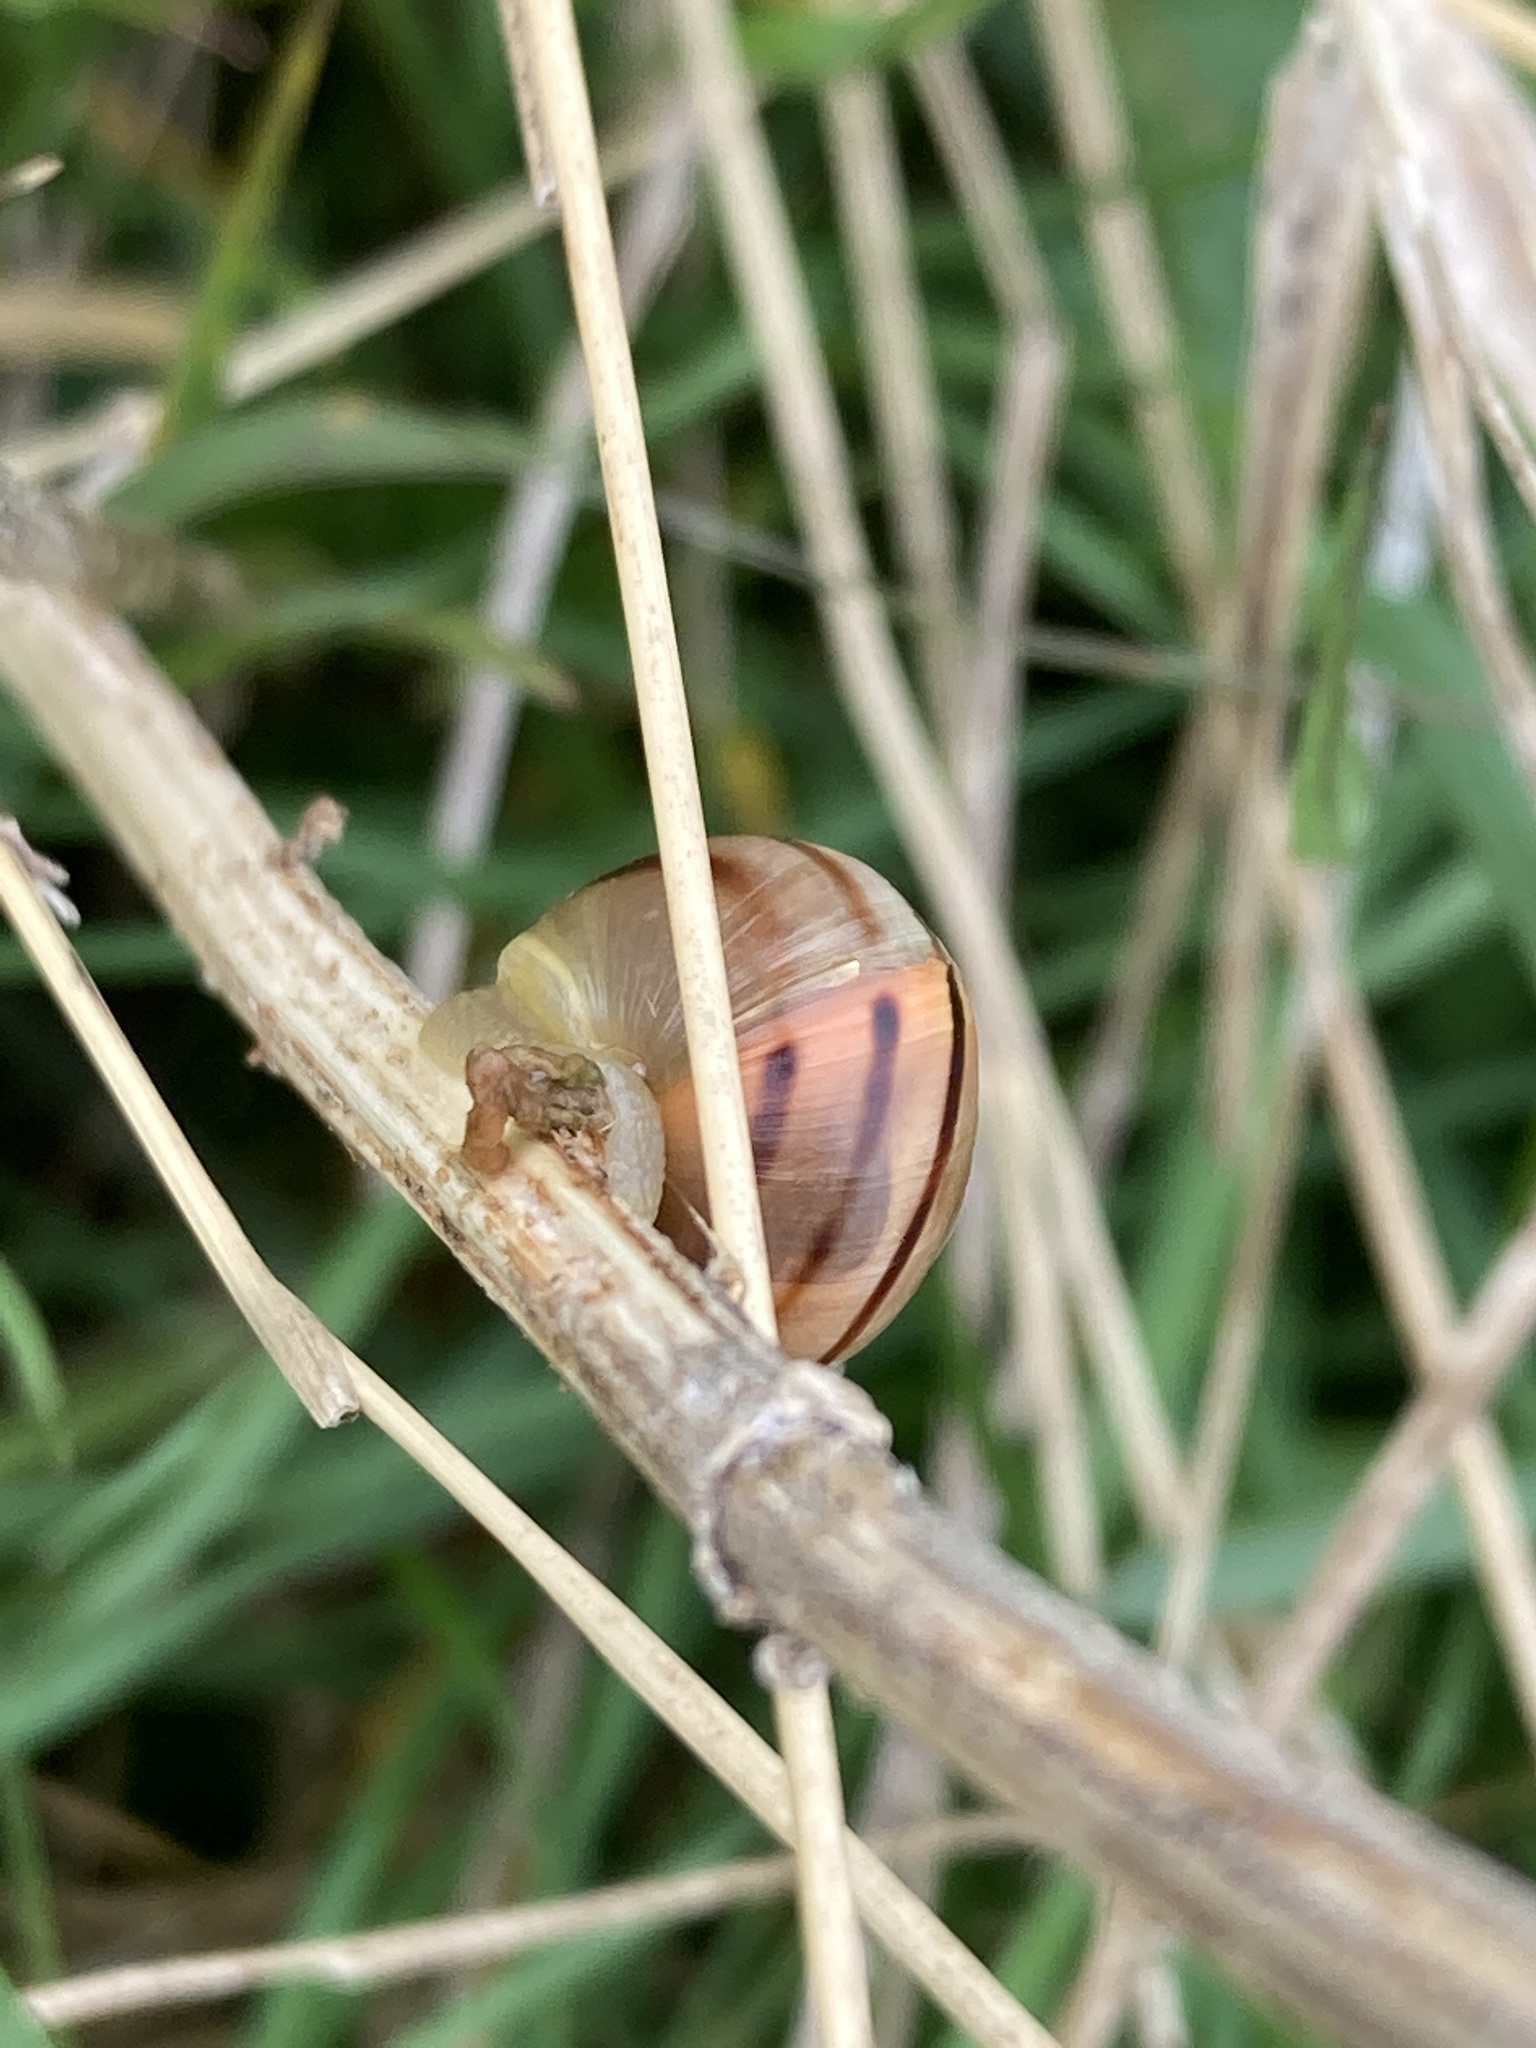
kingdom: Animalia
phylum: Mollusca
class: Gastropoda
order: Stylommatophora
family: Helicidae
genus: Cepaea
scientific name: Cepaea
